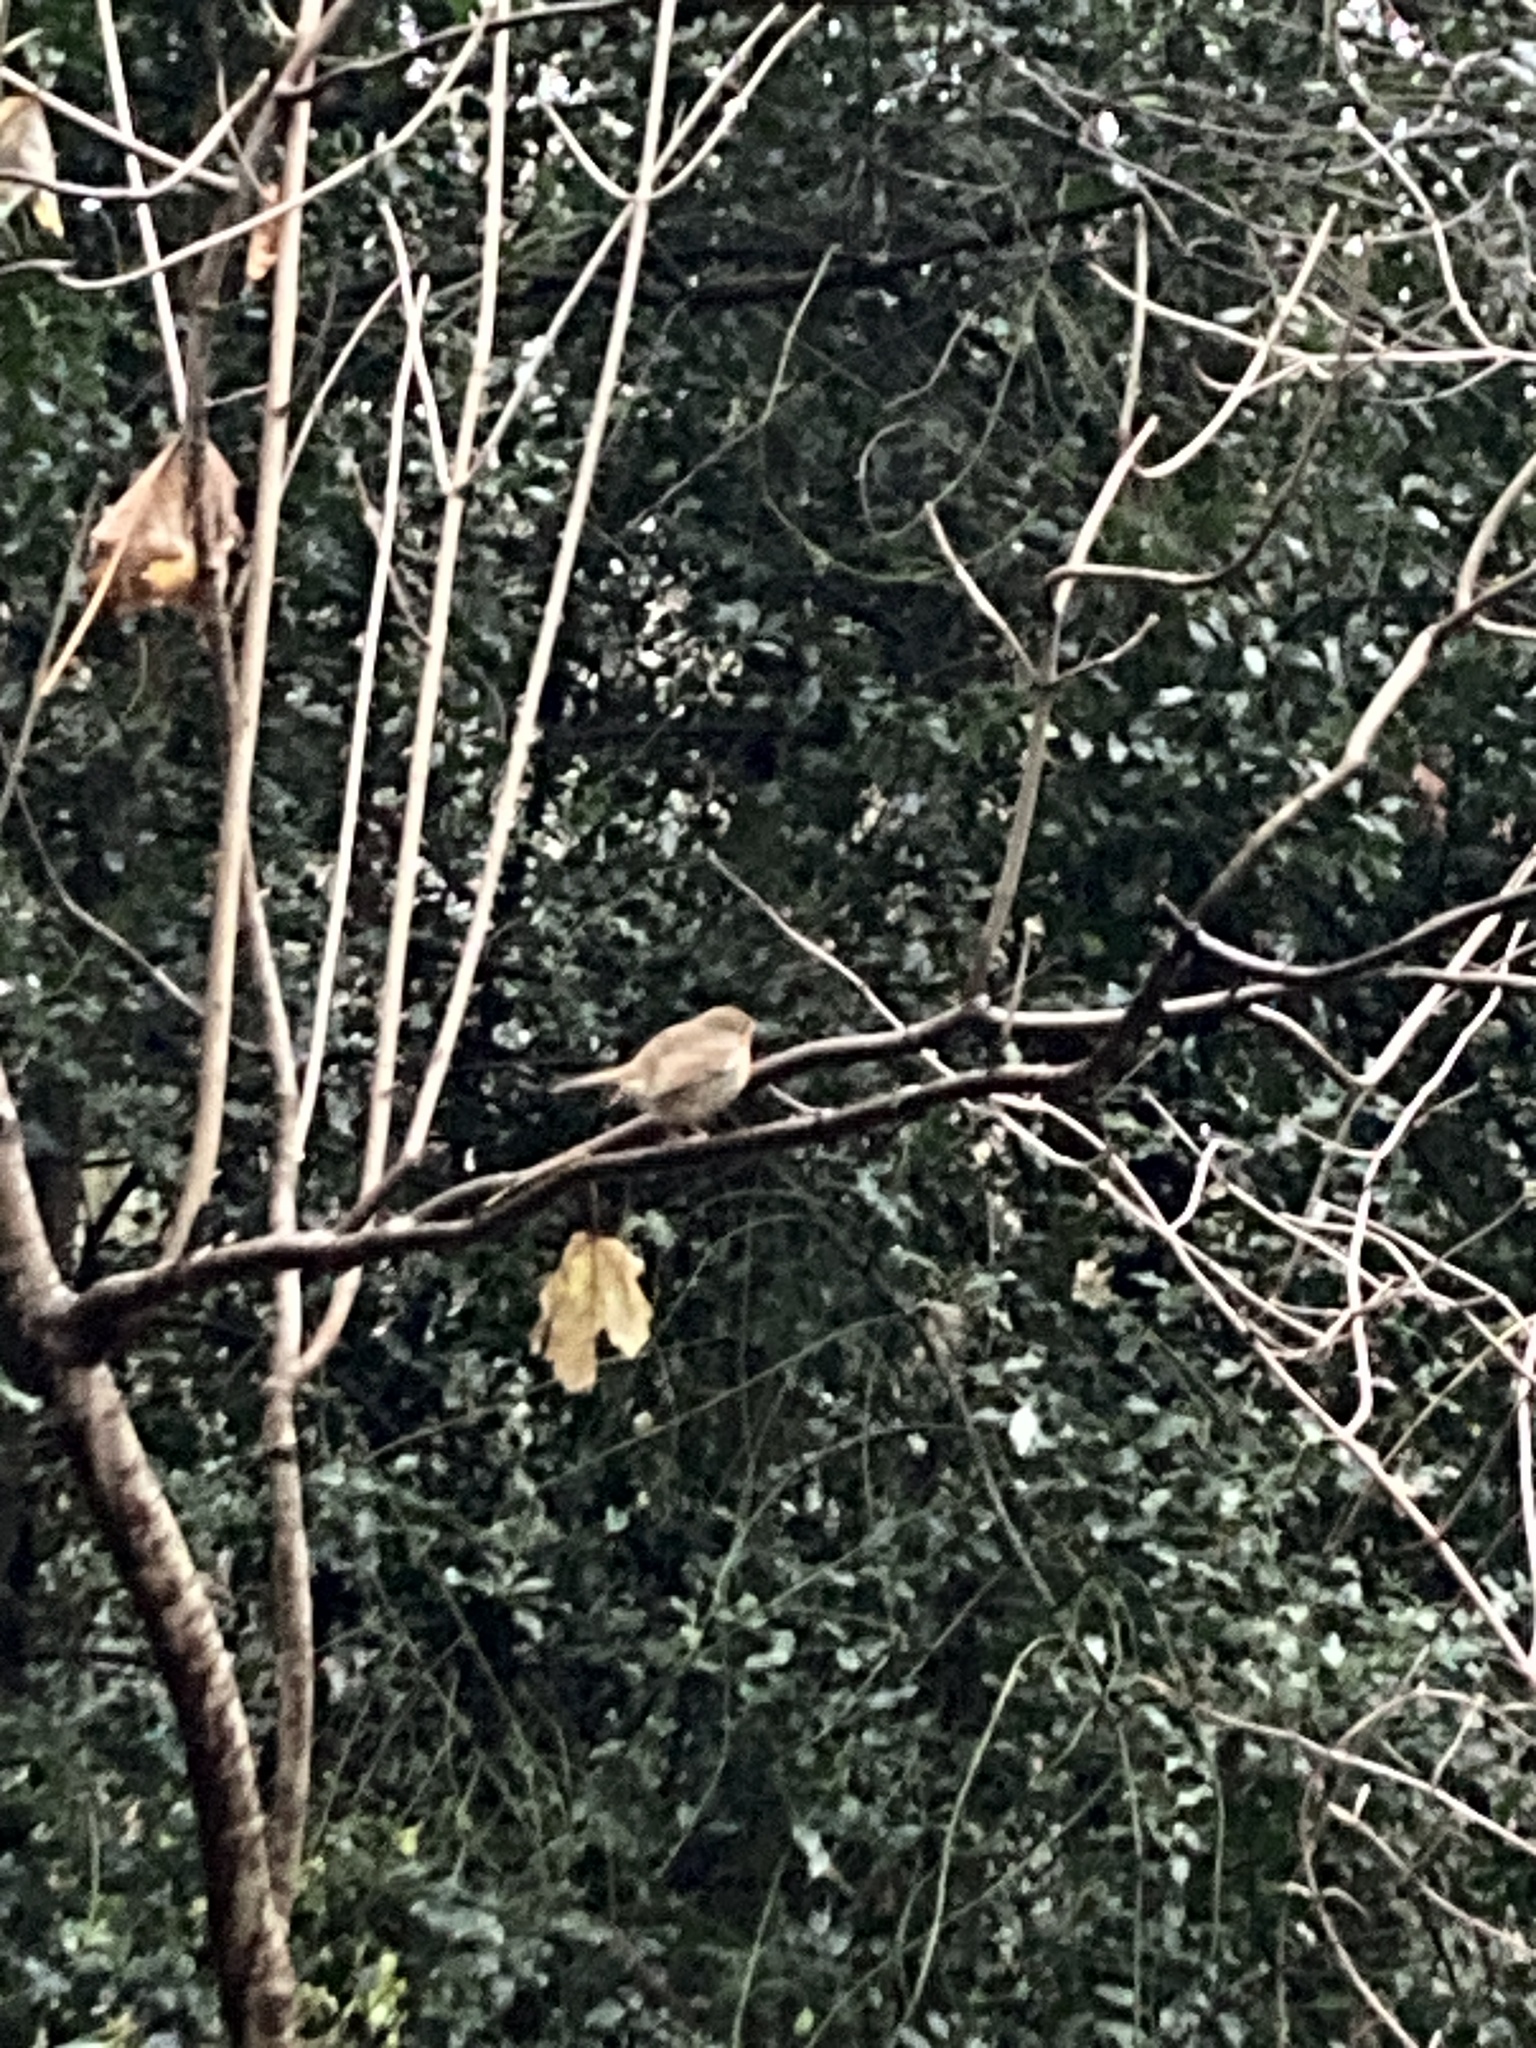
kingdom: Animalia
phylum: Chordata
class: Aves
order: Passeriformes
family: Muscicapidae
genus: Erithacus
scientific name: Erithacus rubecula
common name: European robin
